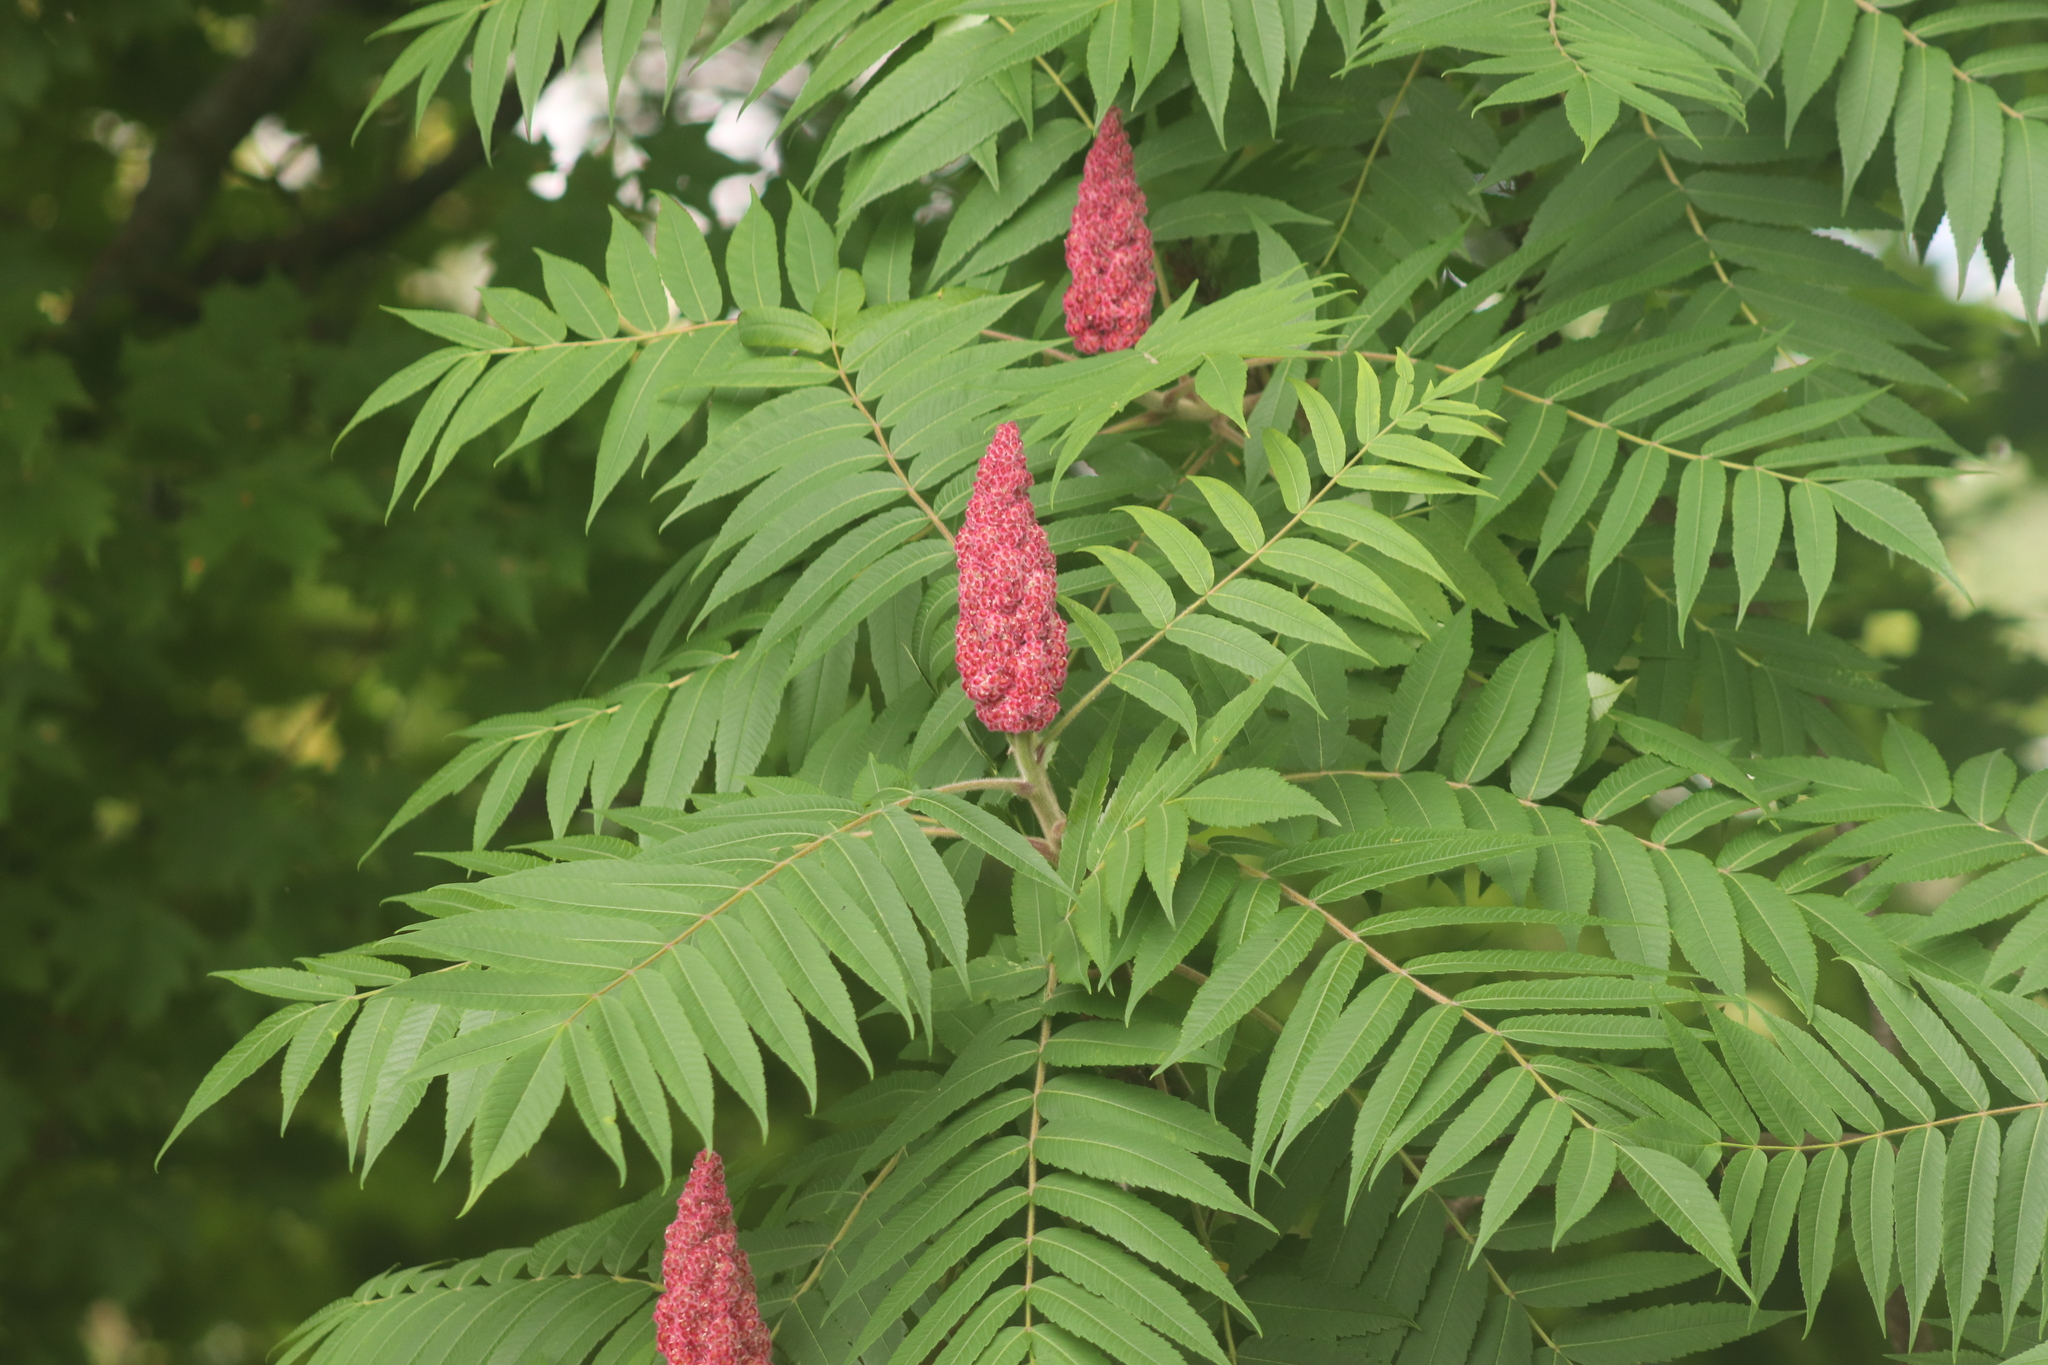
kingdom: Plantae
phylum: Tracheophyta
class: Magnoliopsida
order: Sapindales
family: Anacardiaceae
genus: Rhus
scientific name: Rhus typhina
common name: Staghorn sumac
